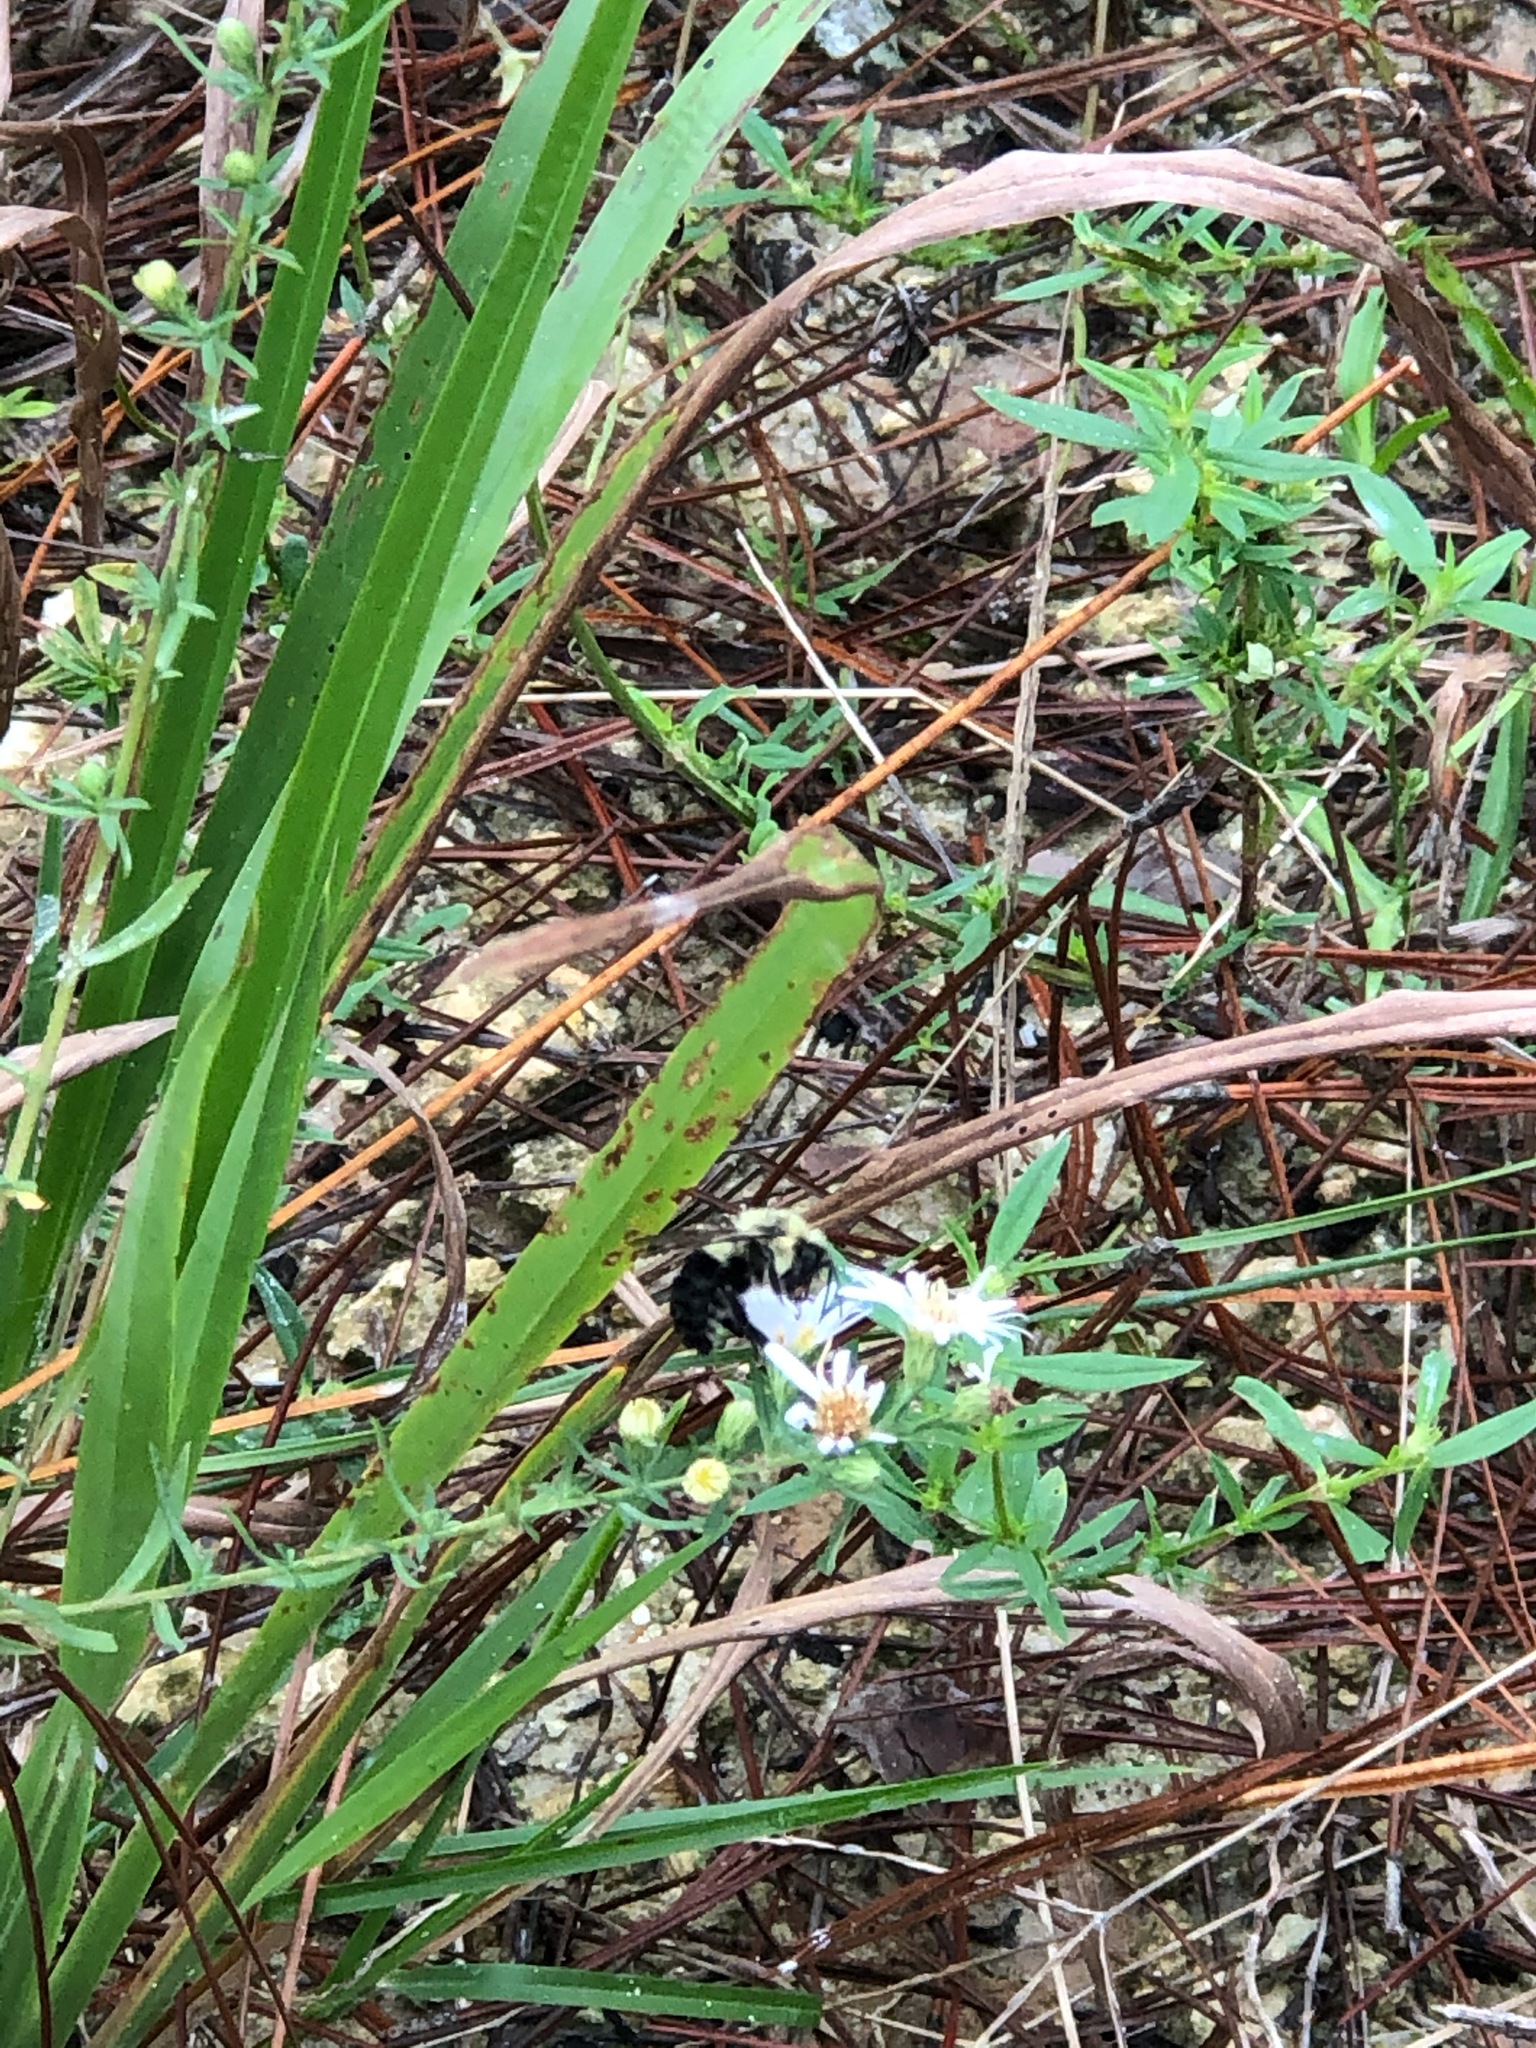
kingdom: Animalia
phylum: Arthropoda
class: Insecta
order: Hymenoptera
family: Apidae
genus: Bombus
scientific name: Bombus impatiens
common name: Common eastern bumble bee
